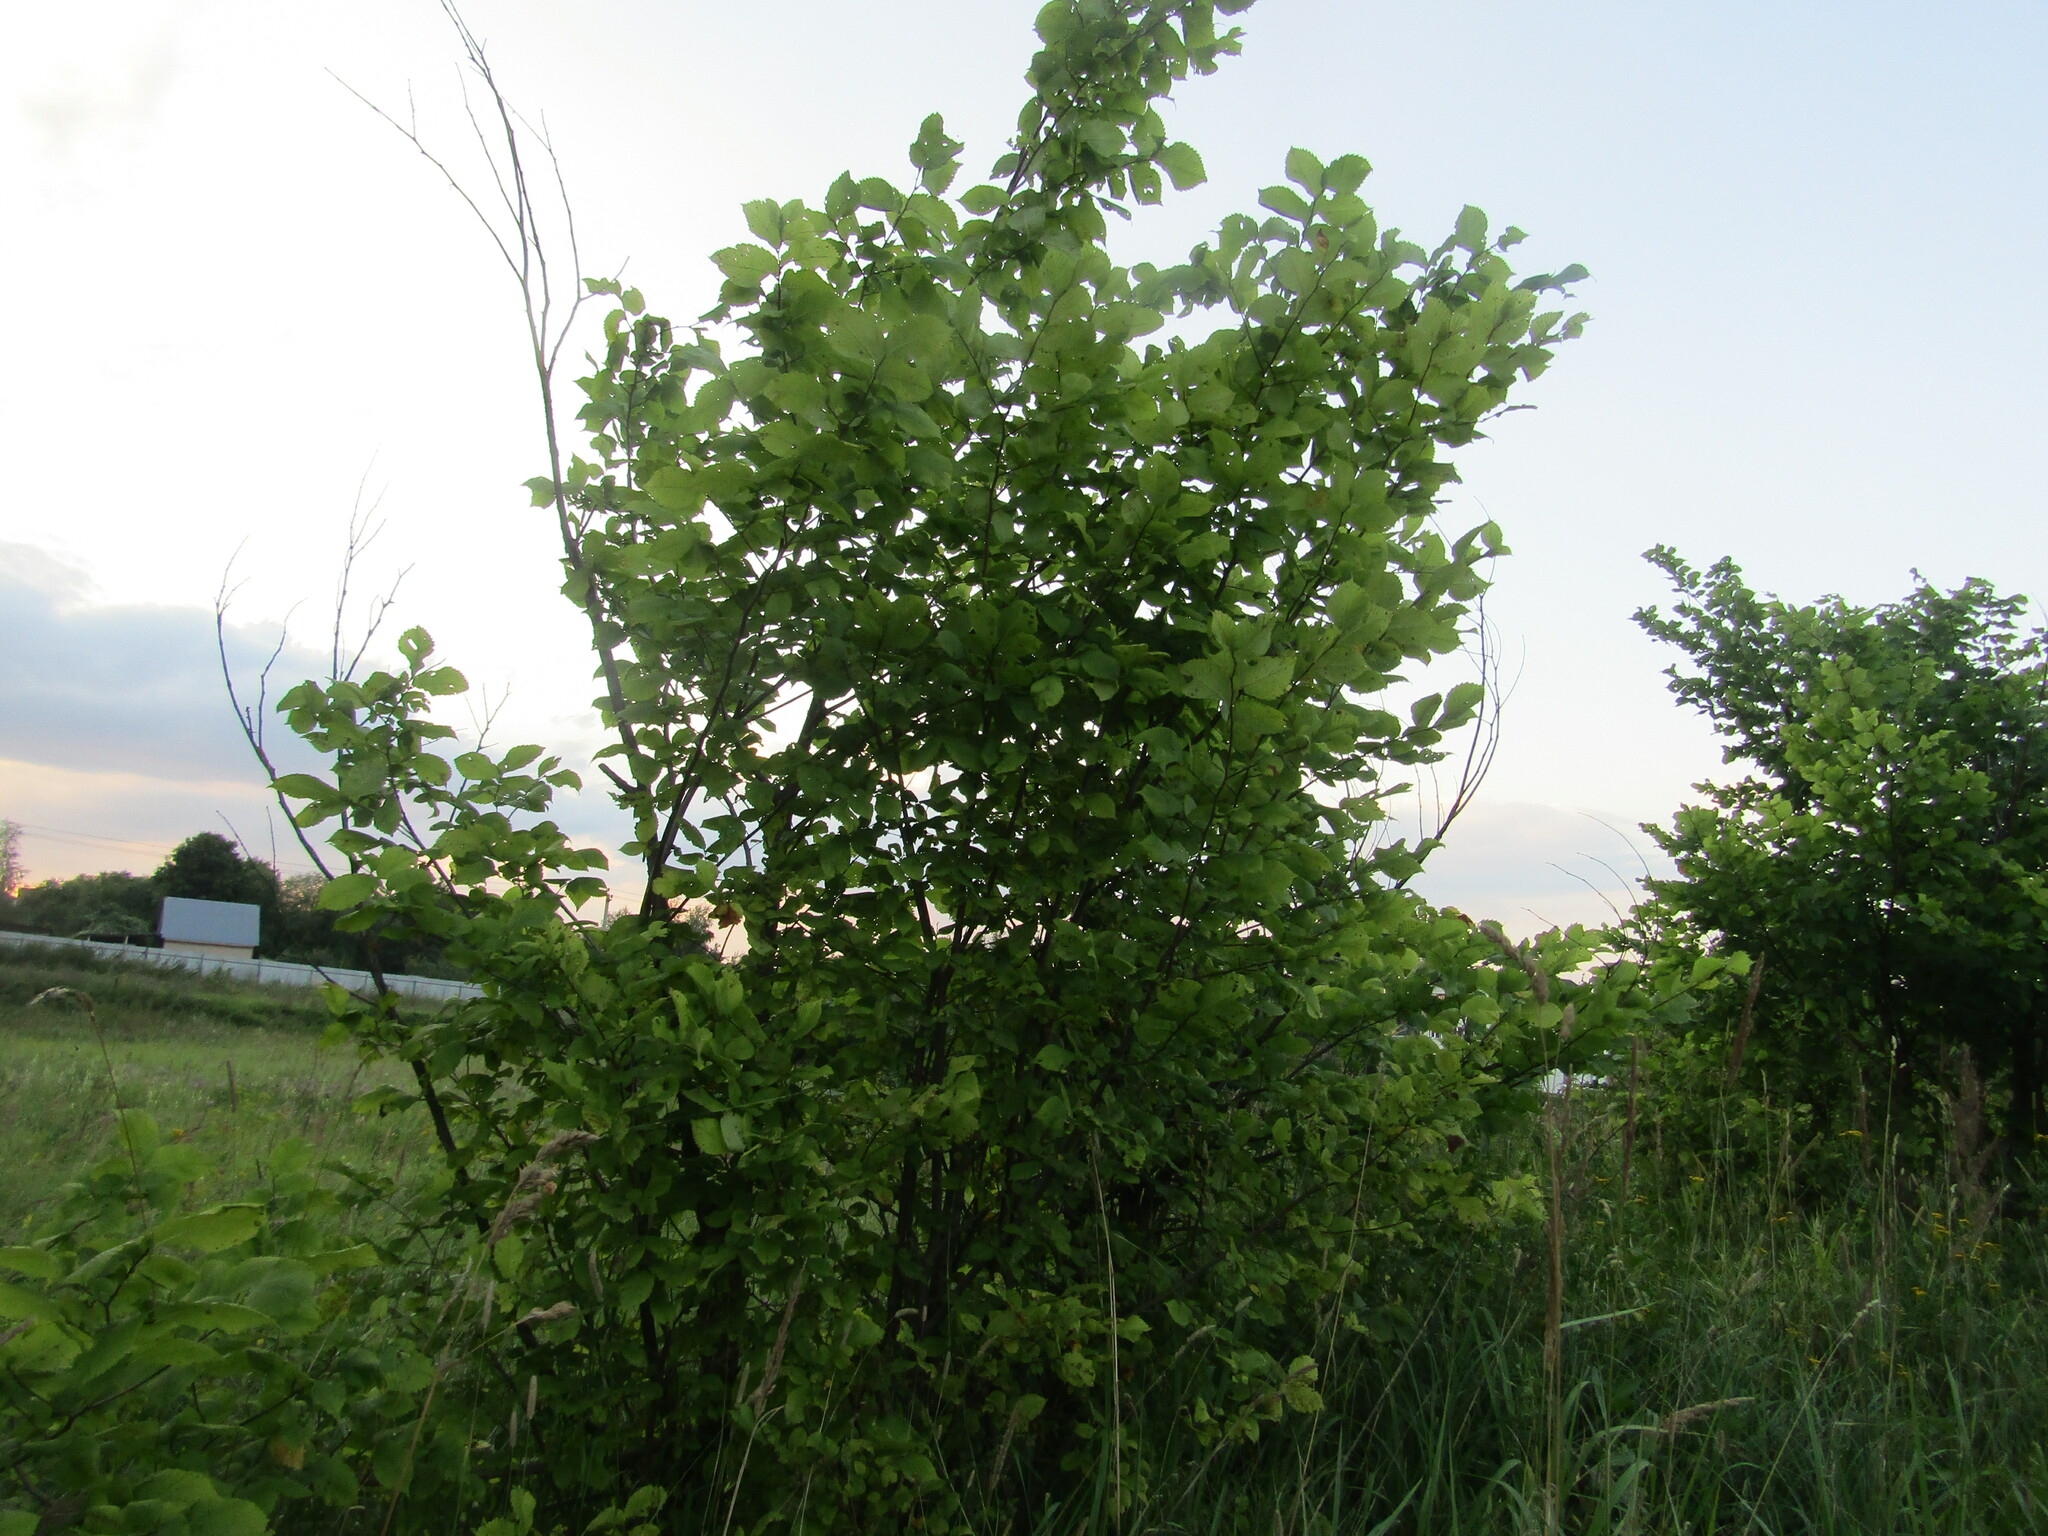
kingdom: Plantae
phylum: Tracheophyta
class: Magnoliopsida
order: Rosales
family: Ulmaceae
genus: Ulmus
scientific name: Ulmus laevis
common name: European white-elm
